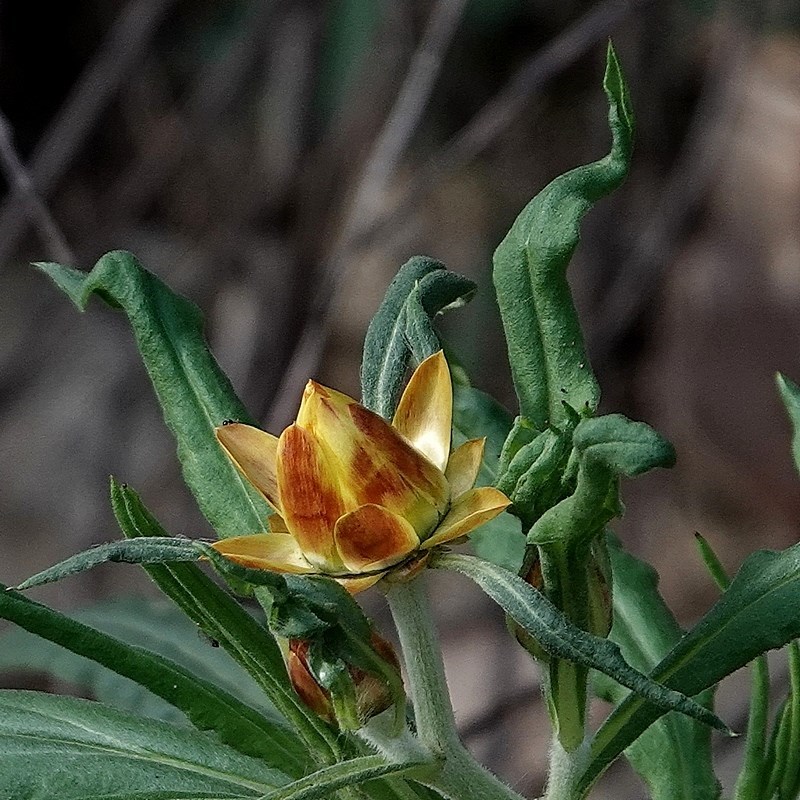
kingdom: Plantae
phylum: Tracheophyta
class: Magnoliopsida
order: Asterales
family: Asteraceae
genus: Xerochrysum
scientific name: Xerochrysum bracteatum
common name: Bracted strawflower
